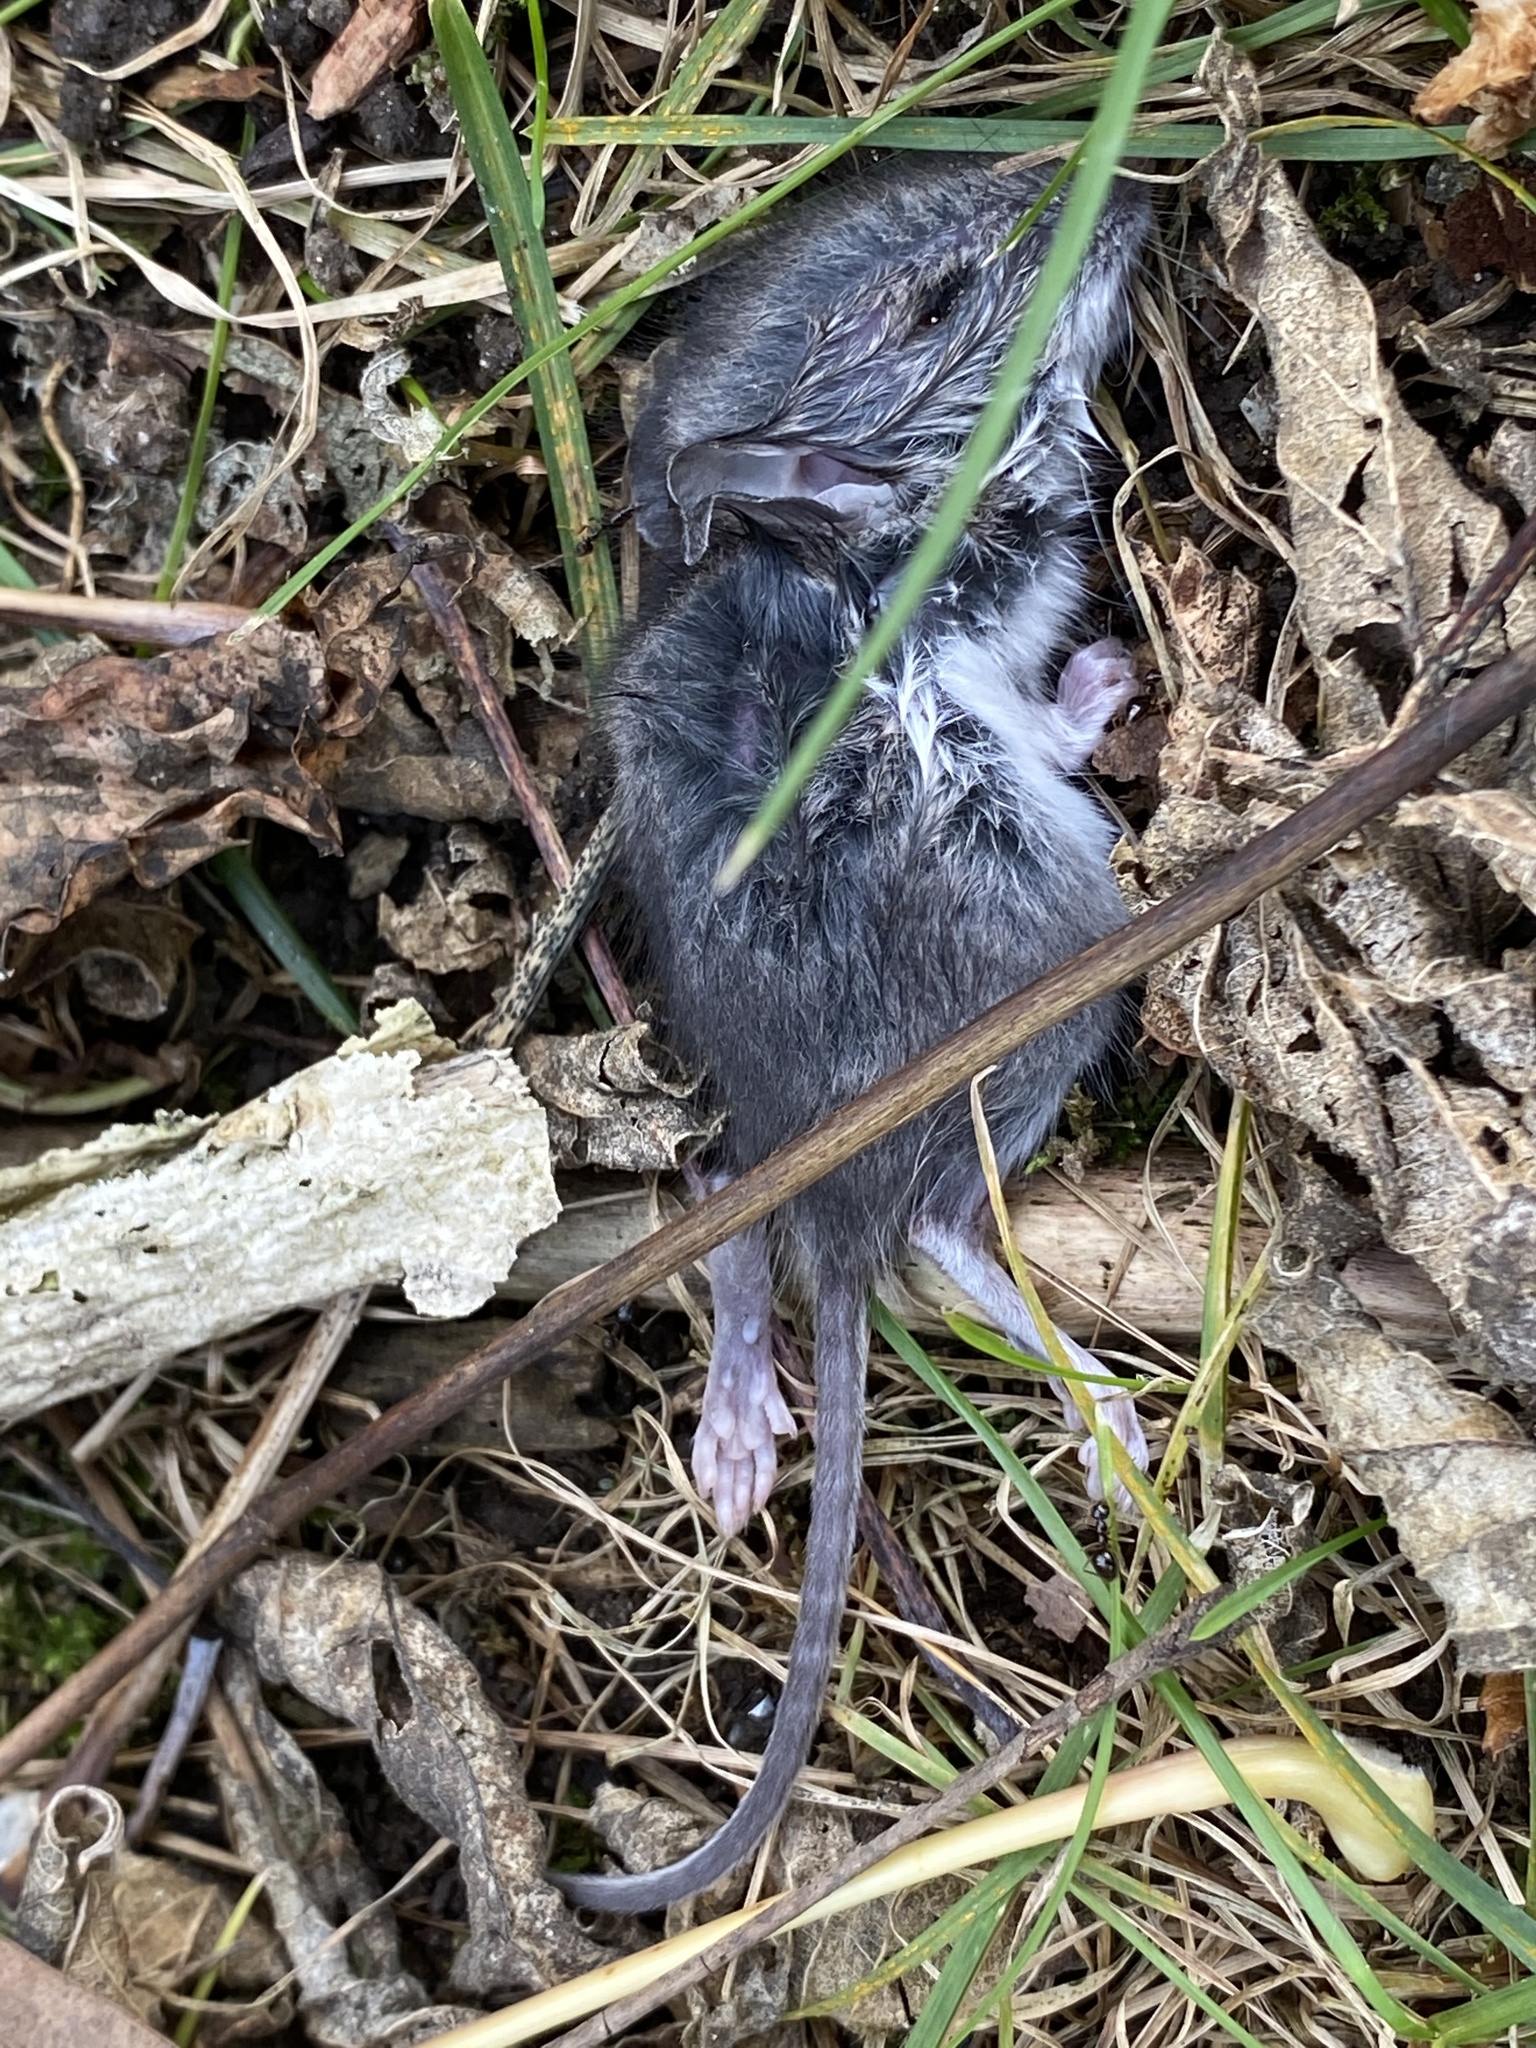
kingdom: Animalia
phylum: Chordata
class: Mammalia
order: Rodentia
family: Cricetidae
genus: Peromyscus
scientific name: Peromyscus leucopus
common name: White-footed deermouse
